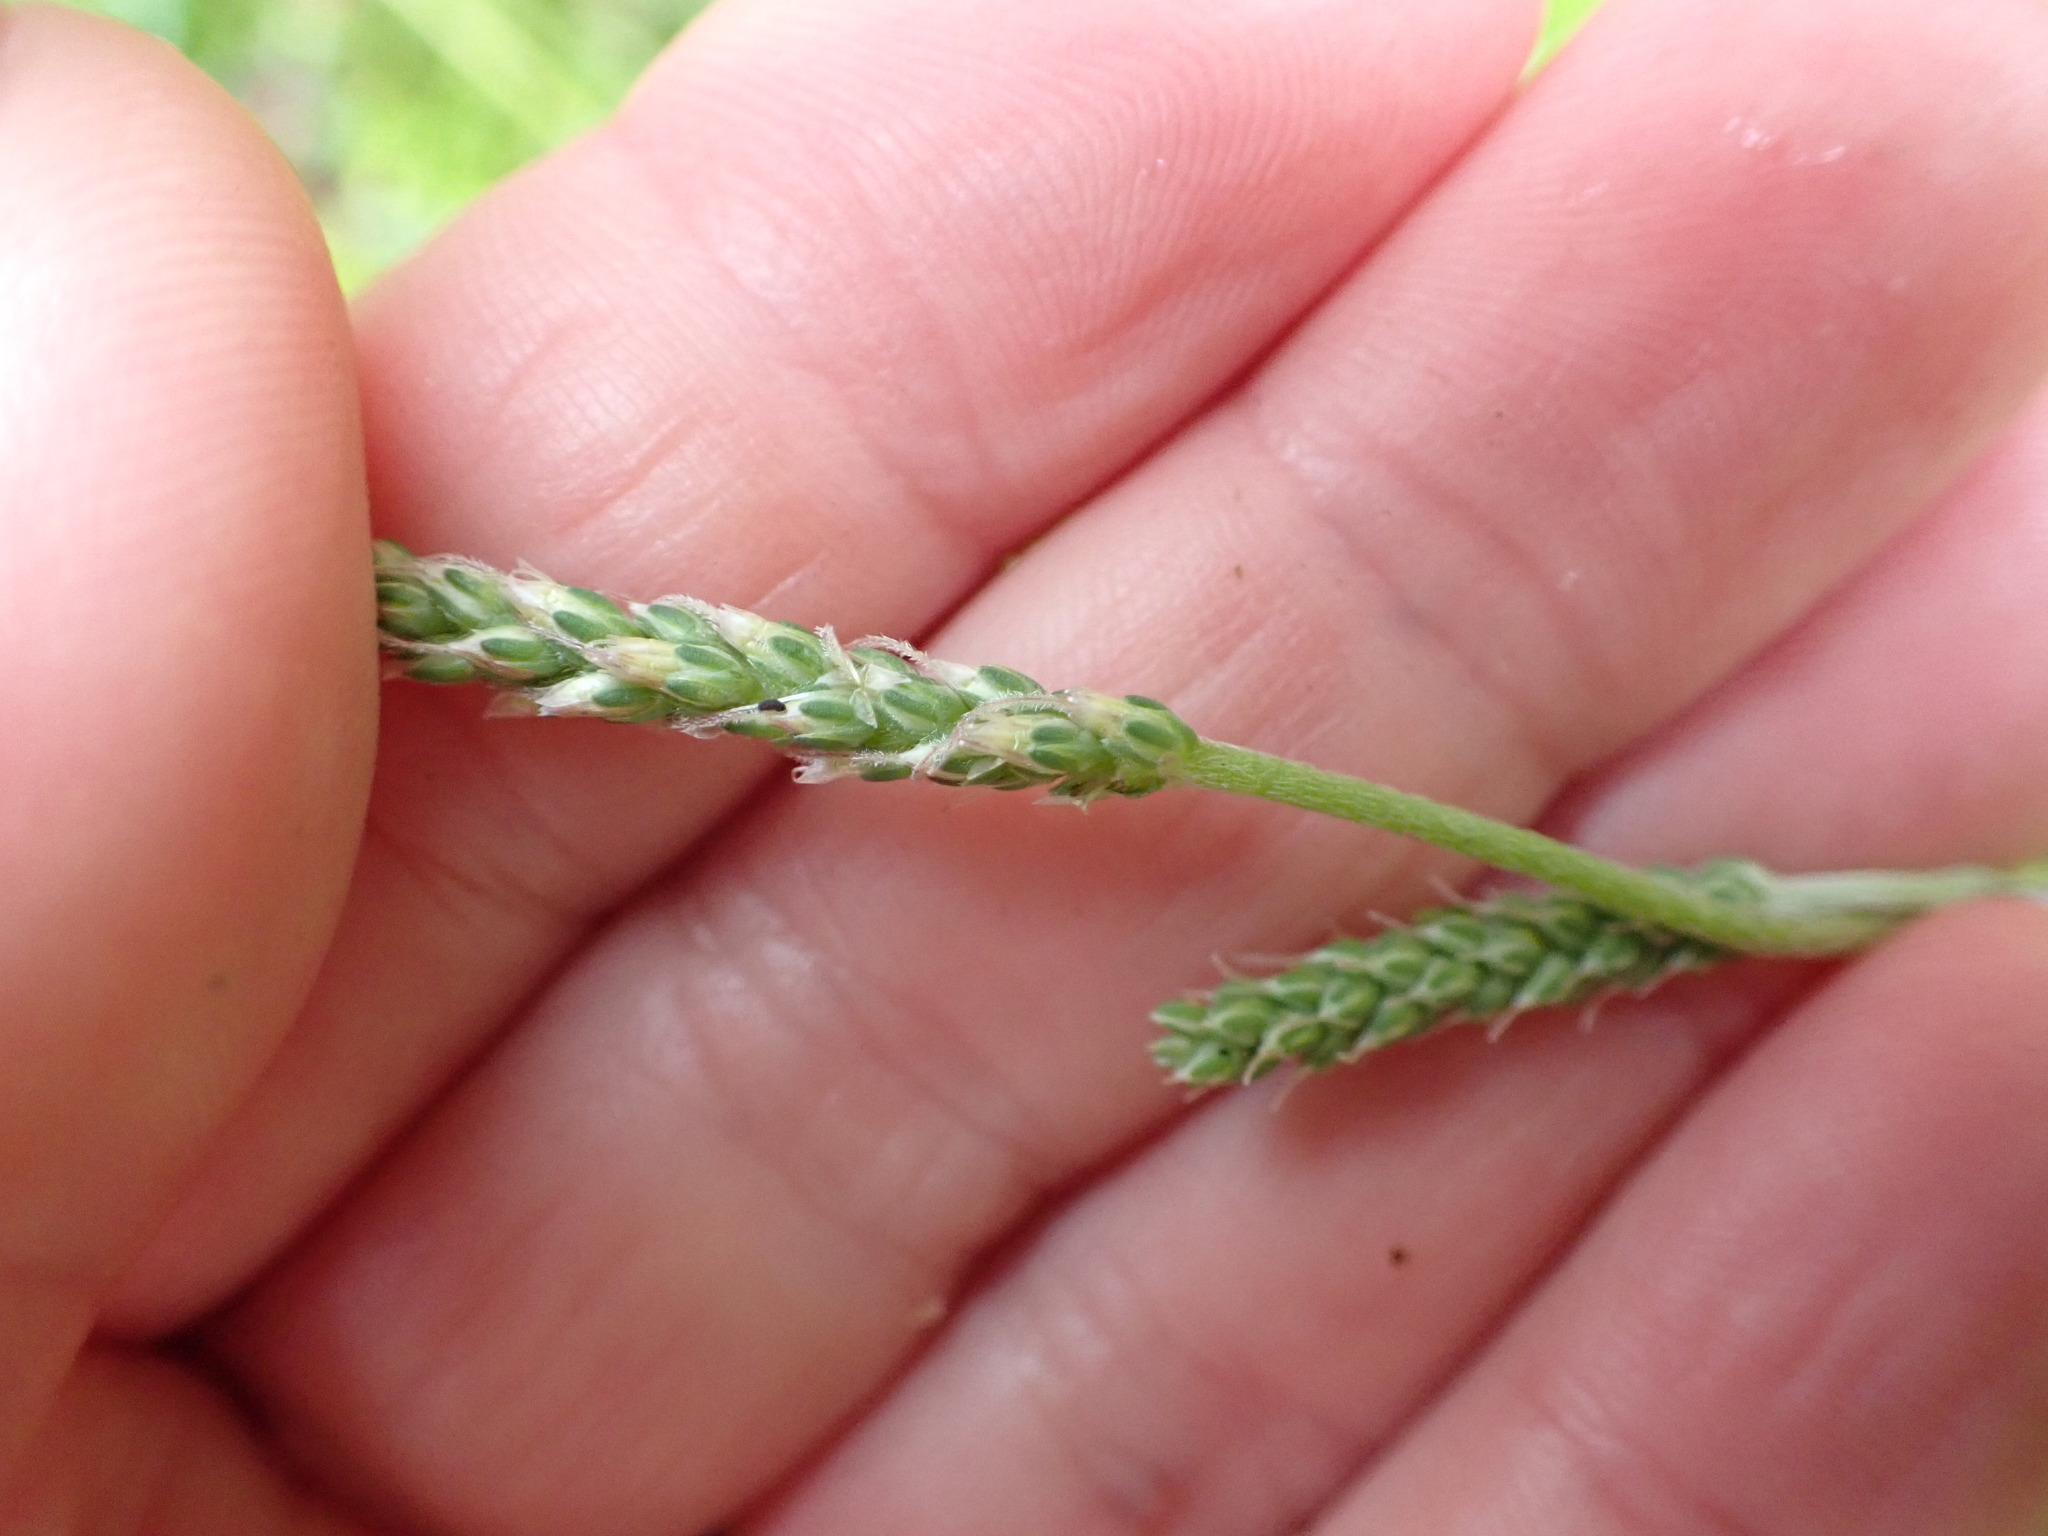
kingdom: Plantae
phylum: Tracheophyta
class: Magnoliopsida
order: Lamiales
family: Plantaginaceae
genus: Plantago
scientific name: Plantago coronopus
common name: Buck's-horn plantain
